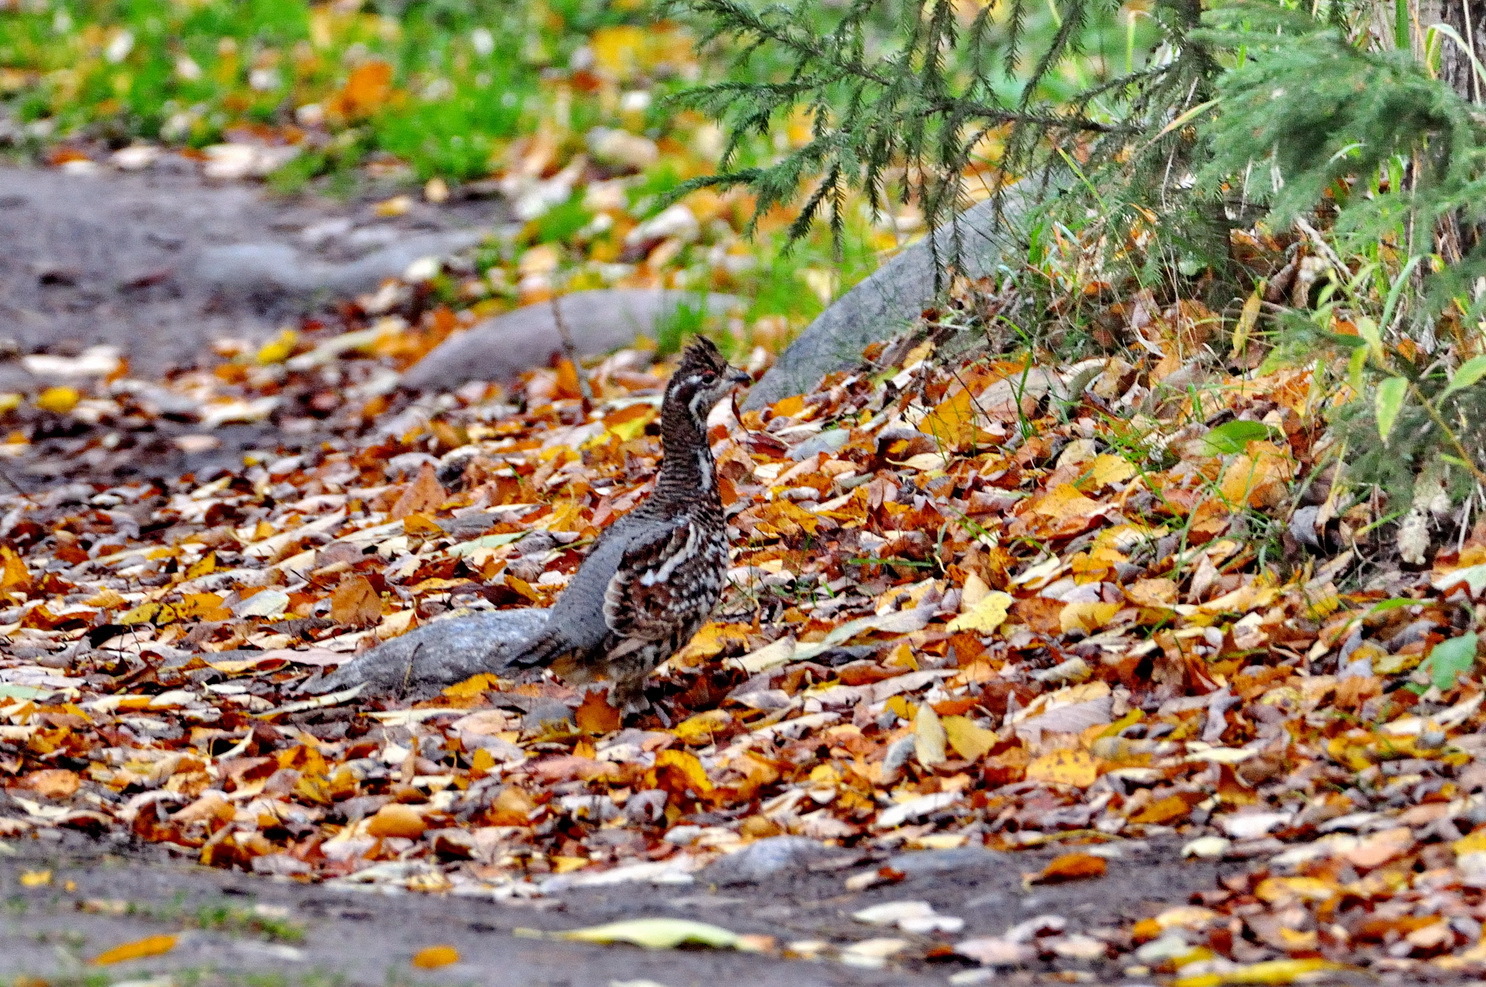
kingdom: Animalia
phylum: Chordata
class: Aves
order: Galliformes
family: Phasianidae
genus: Tetrastes
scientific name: Tetrastes bonasia
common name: Hazel grouse
